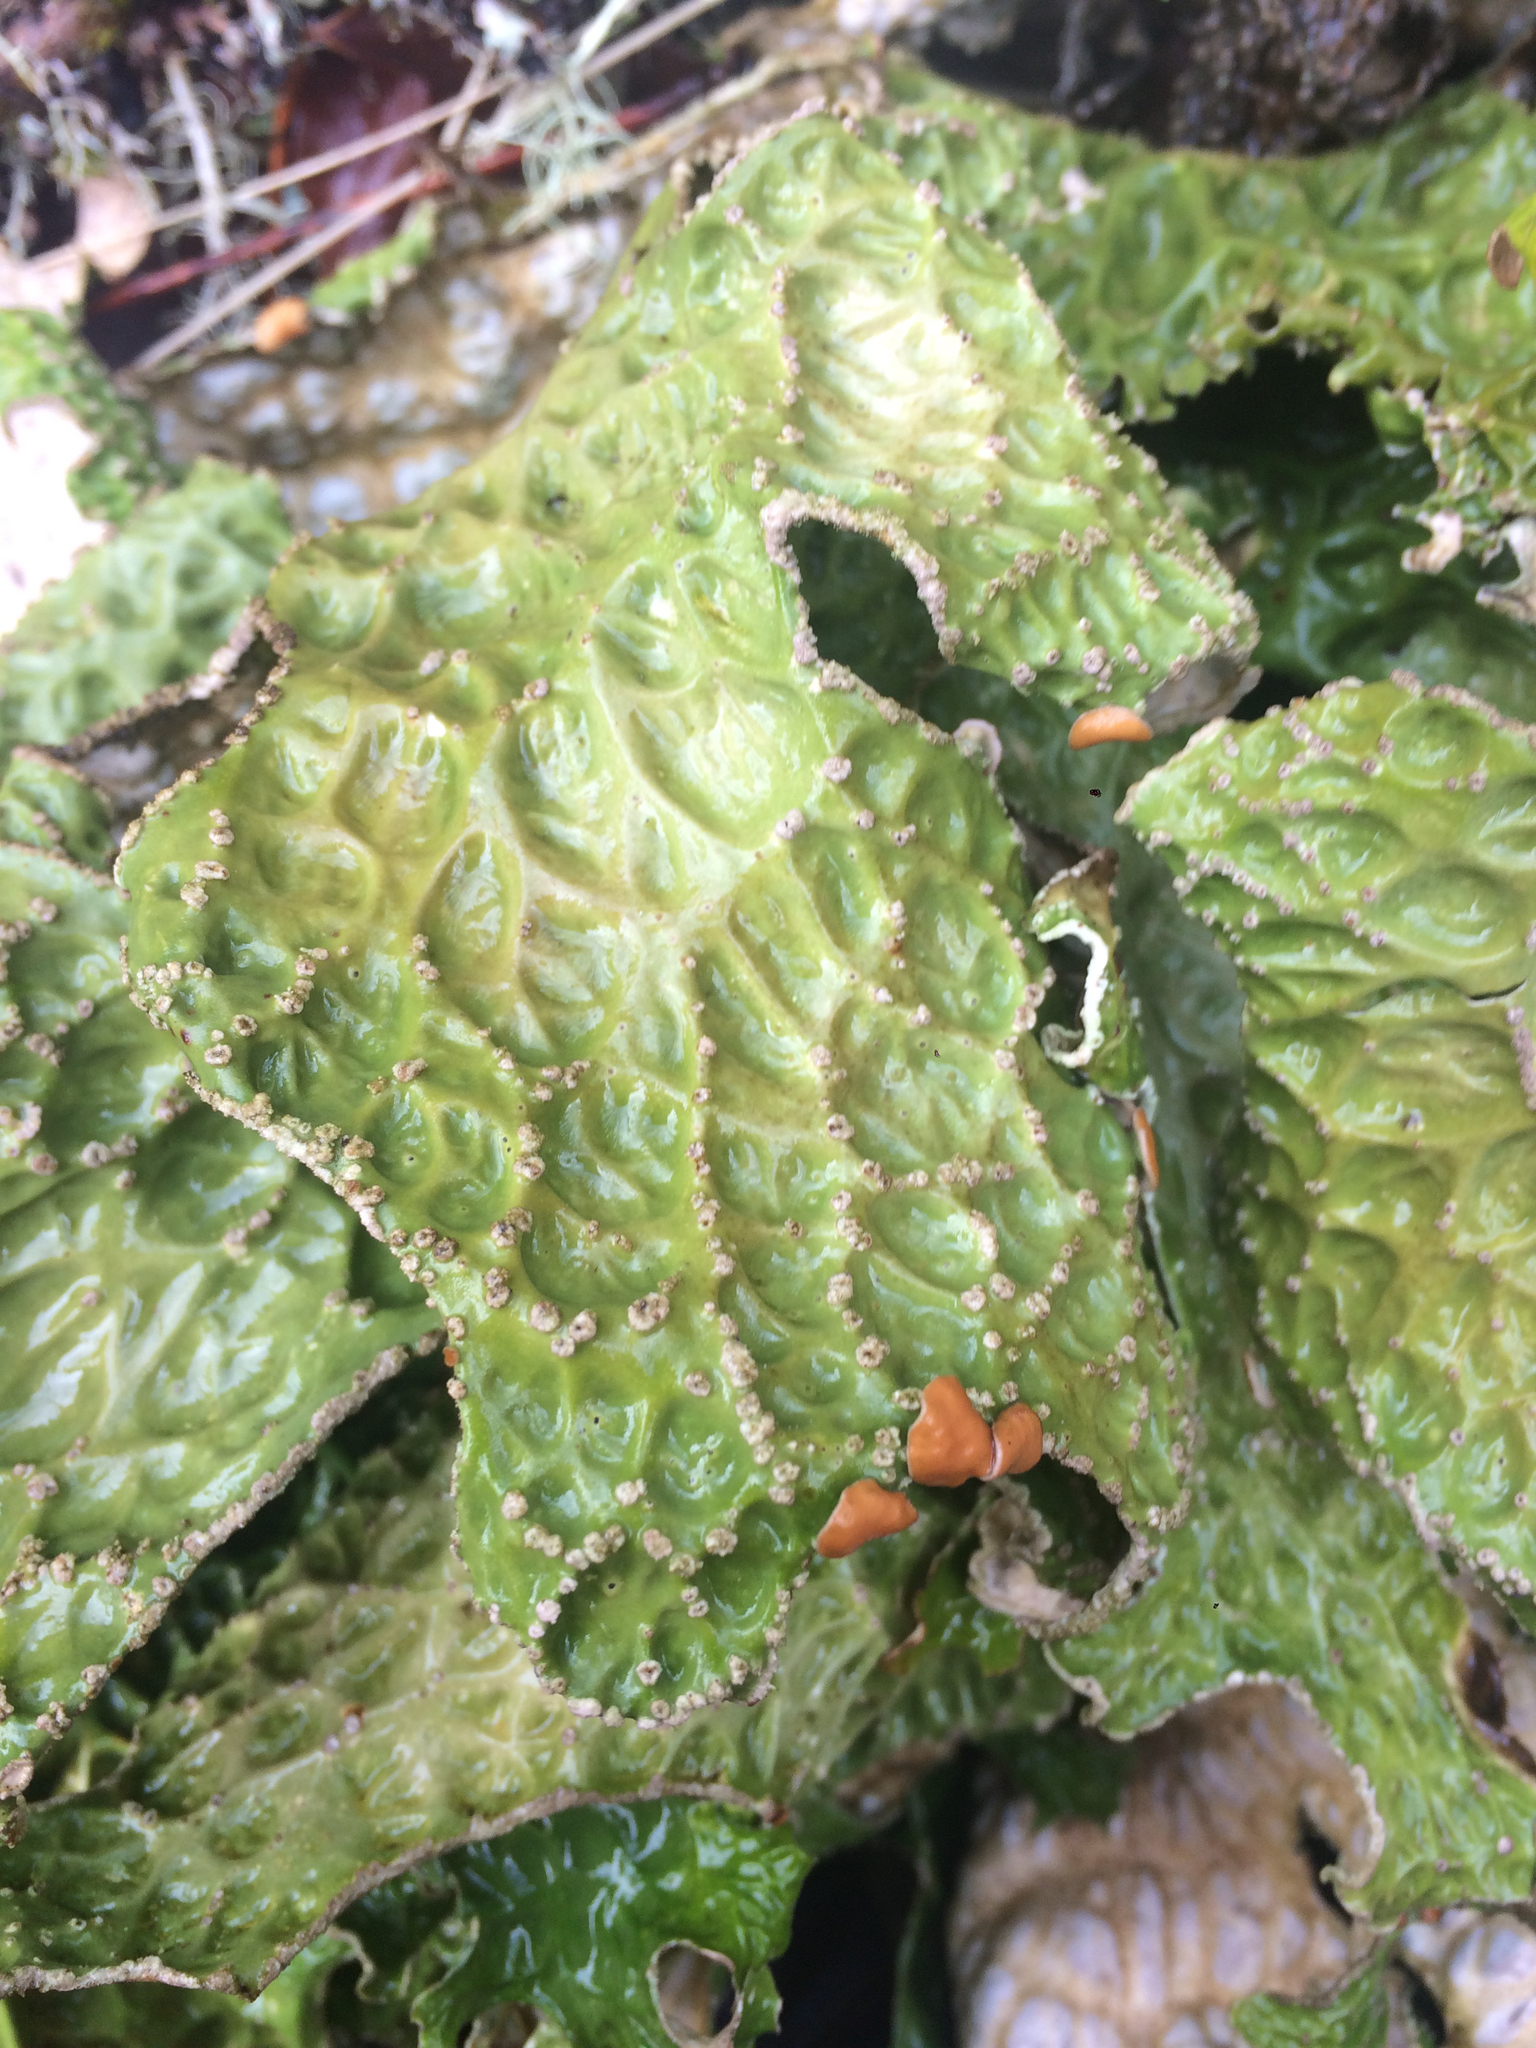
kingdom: Fungi
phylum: Ascomycota
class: Lecanoromycetes
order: Peltigerales
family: Lobariaceae
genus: Lobaria
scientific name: Lobaria pulmonaria
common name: Lungwort
